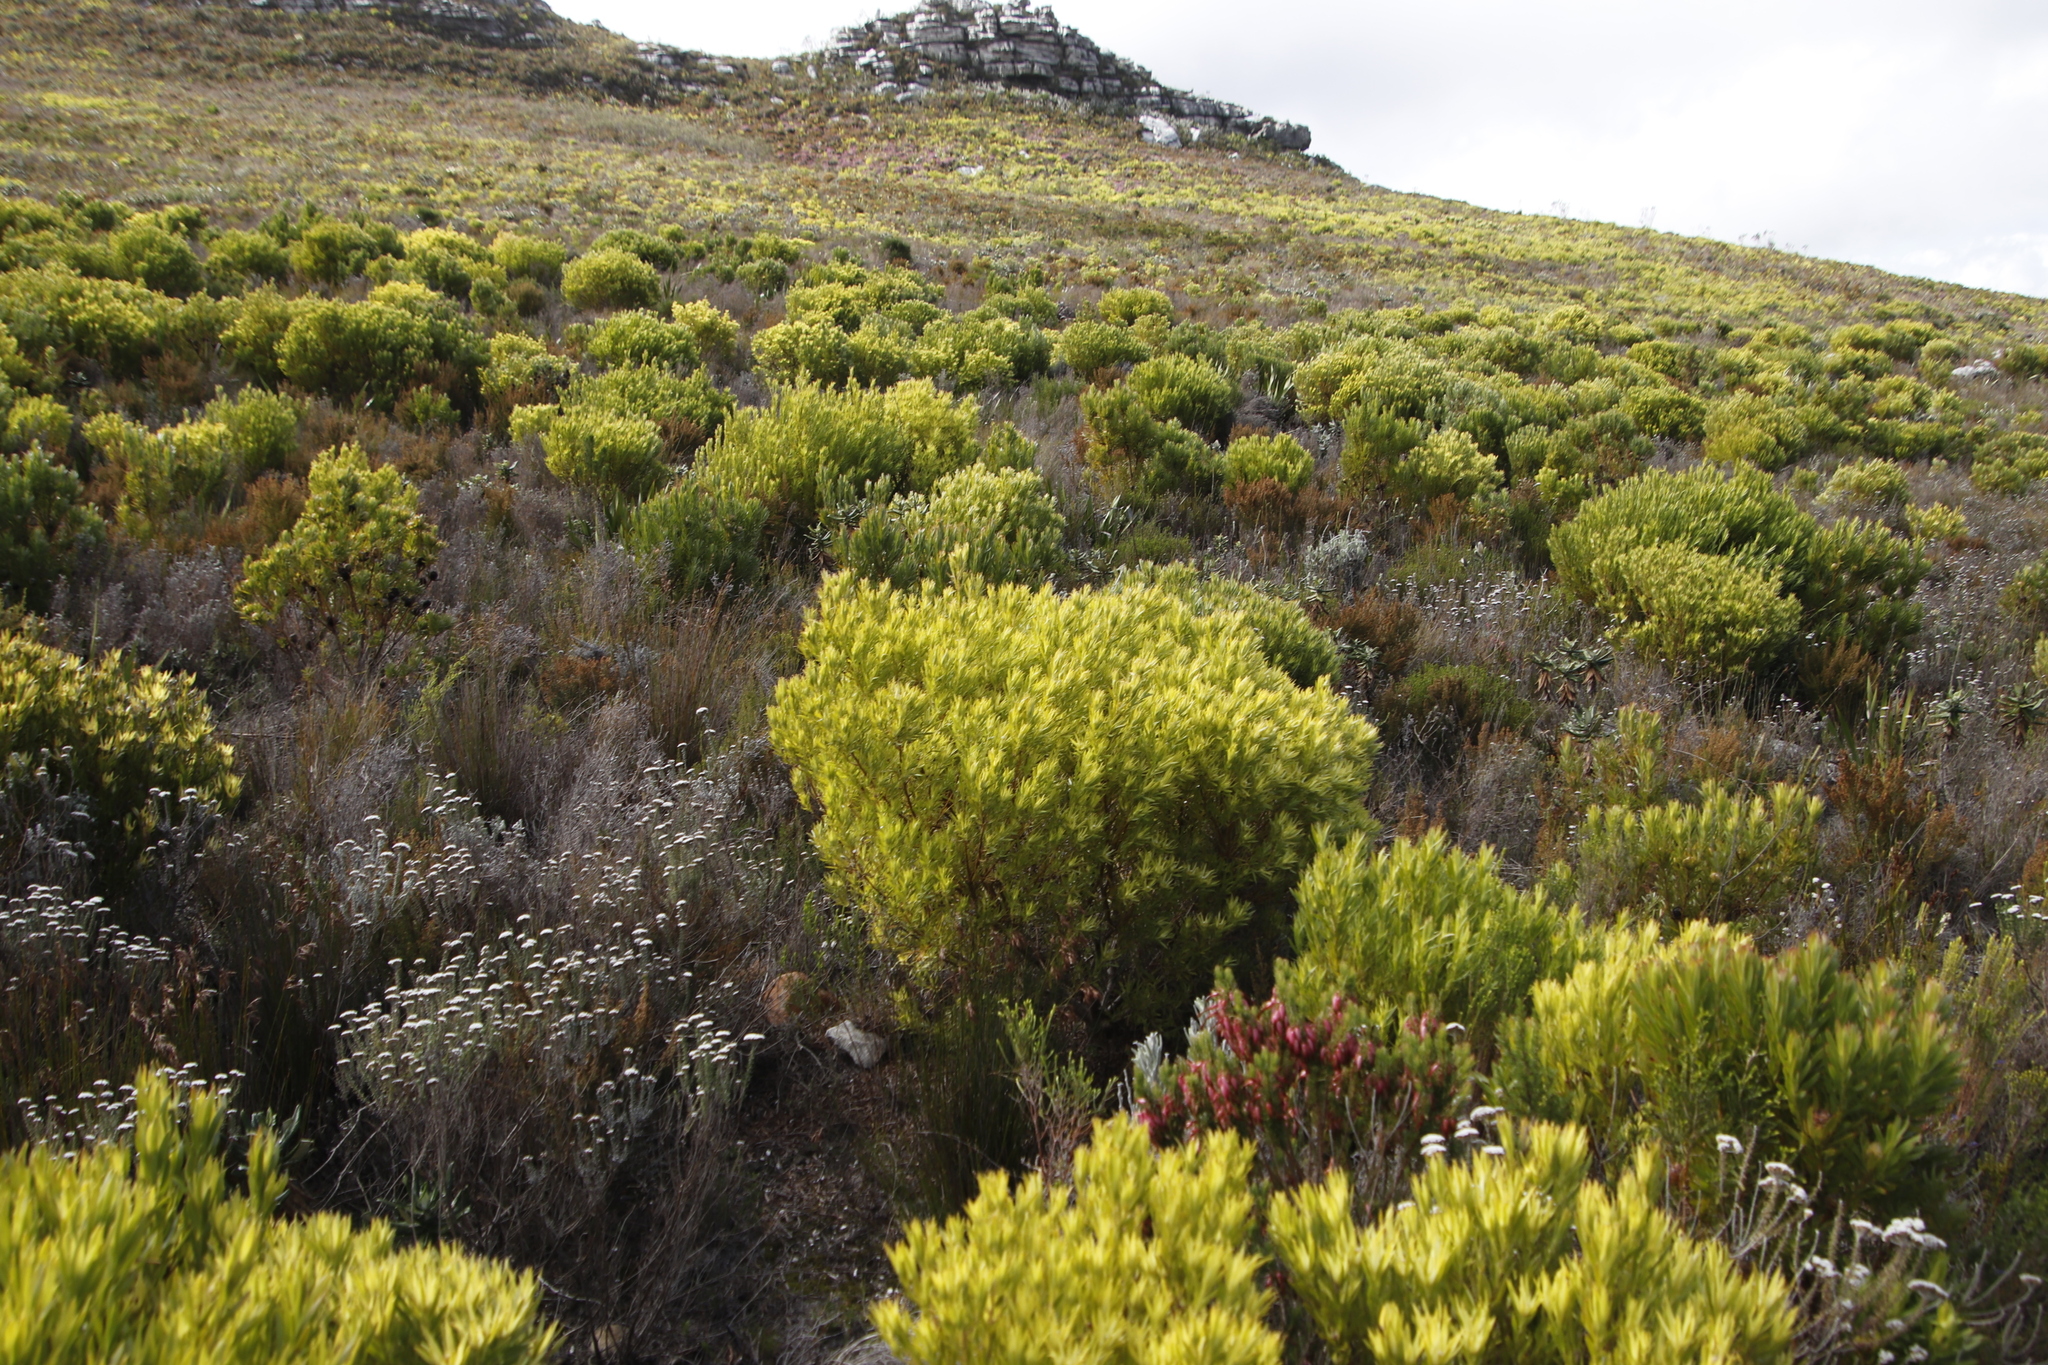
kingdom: Plantae
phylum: Tracheophyta
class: Magnoliopsida
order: Proteales
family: Proteaceae
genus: Leucadendron
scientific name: Leucadendron xanthoconus
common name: Sickle-leaf conebush
